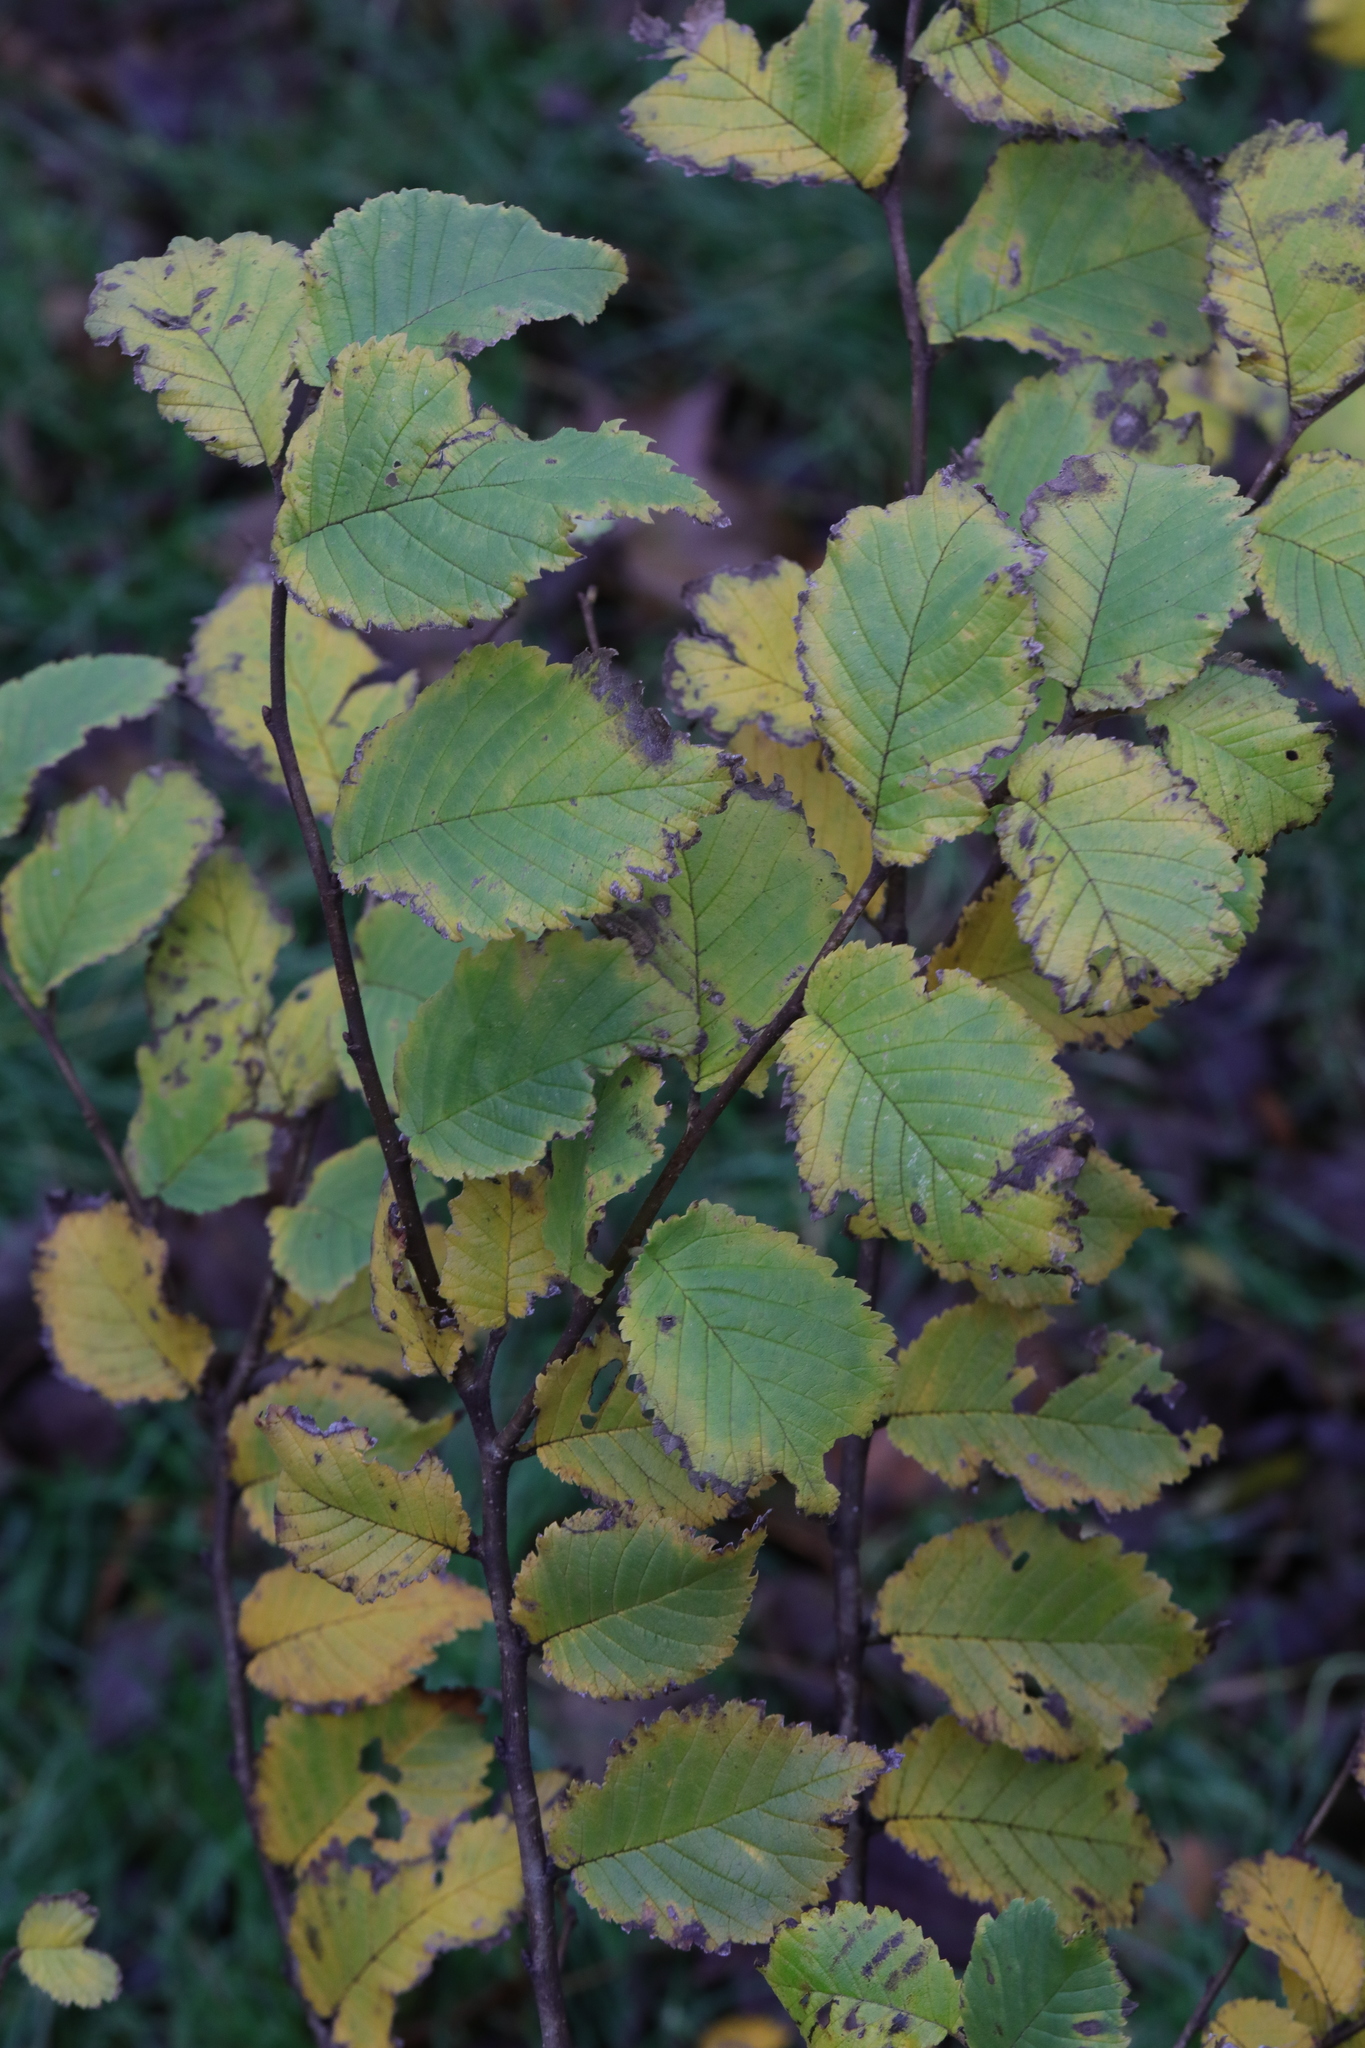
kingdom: Plantae
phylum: Tracheophyta
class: Magnoliopsida
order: Rosales
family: Ulmaceae
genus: Ulmus
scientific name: Ulmus minor
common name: Small-leaved elm
